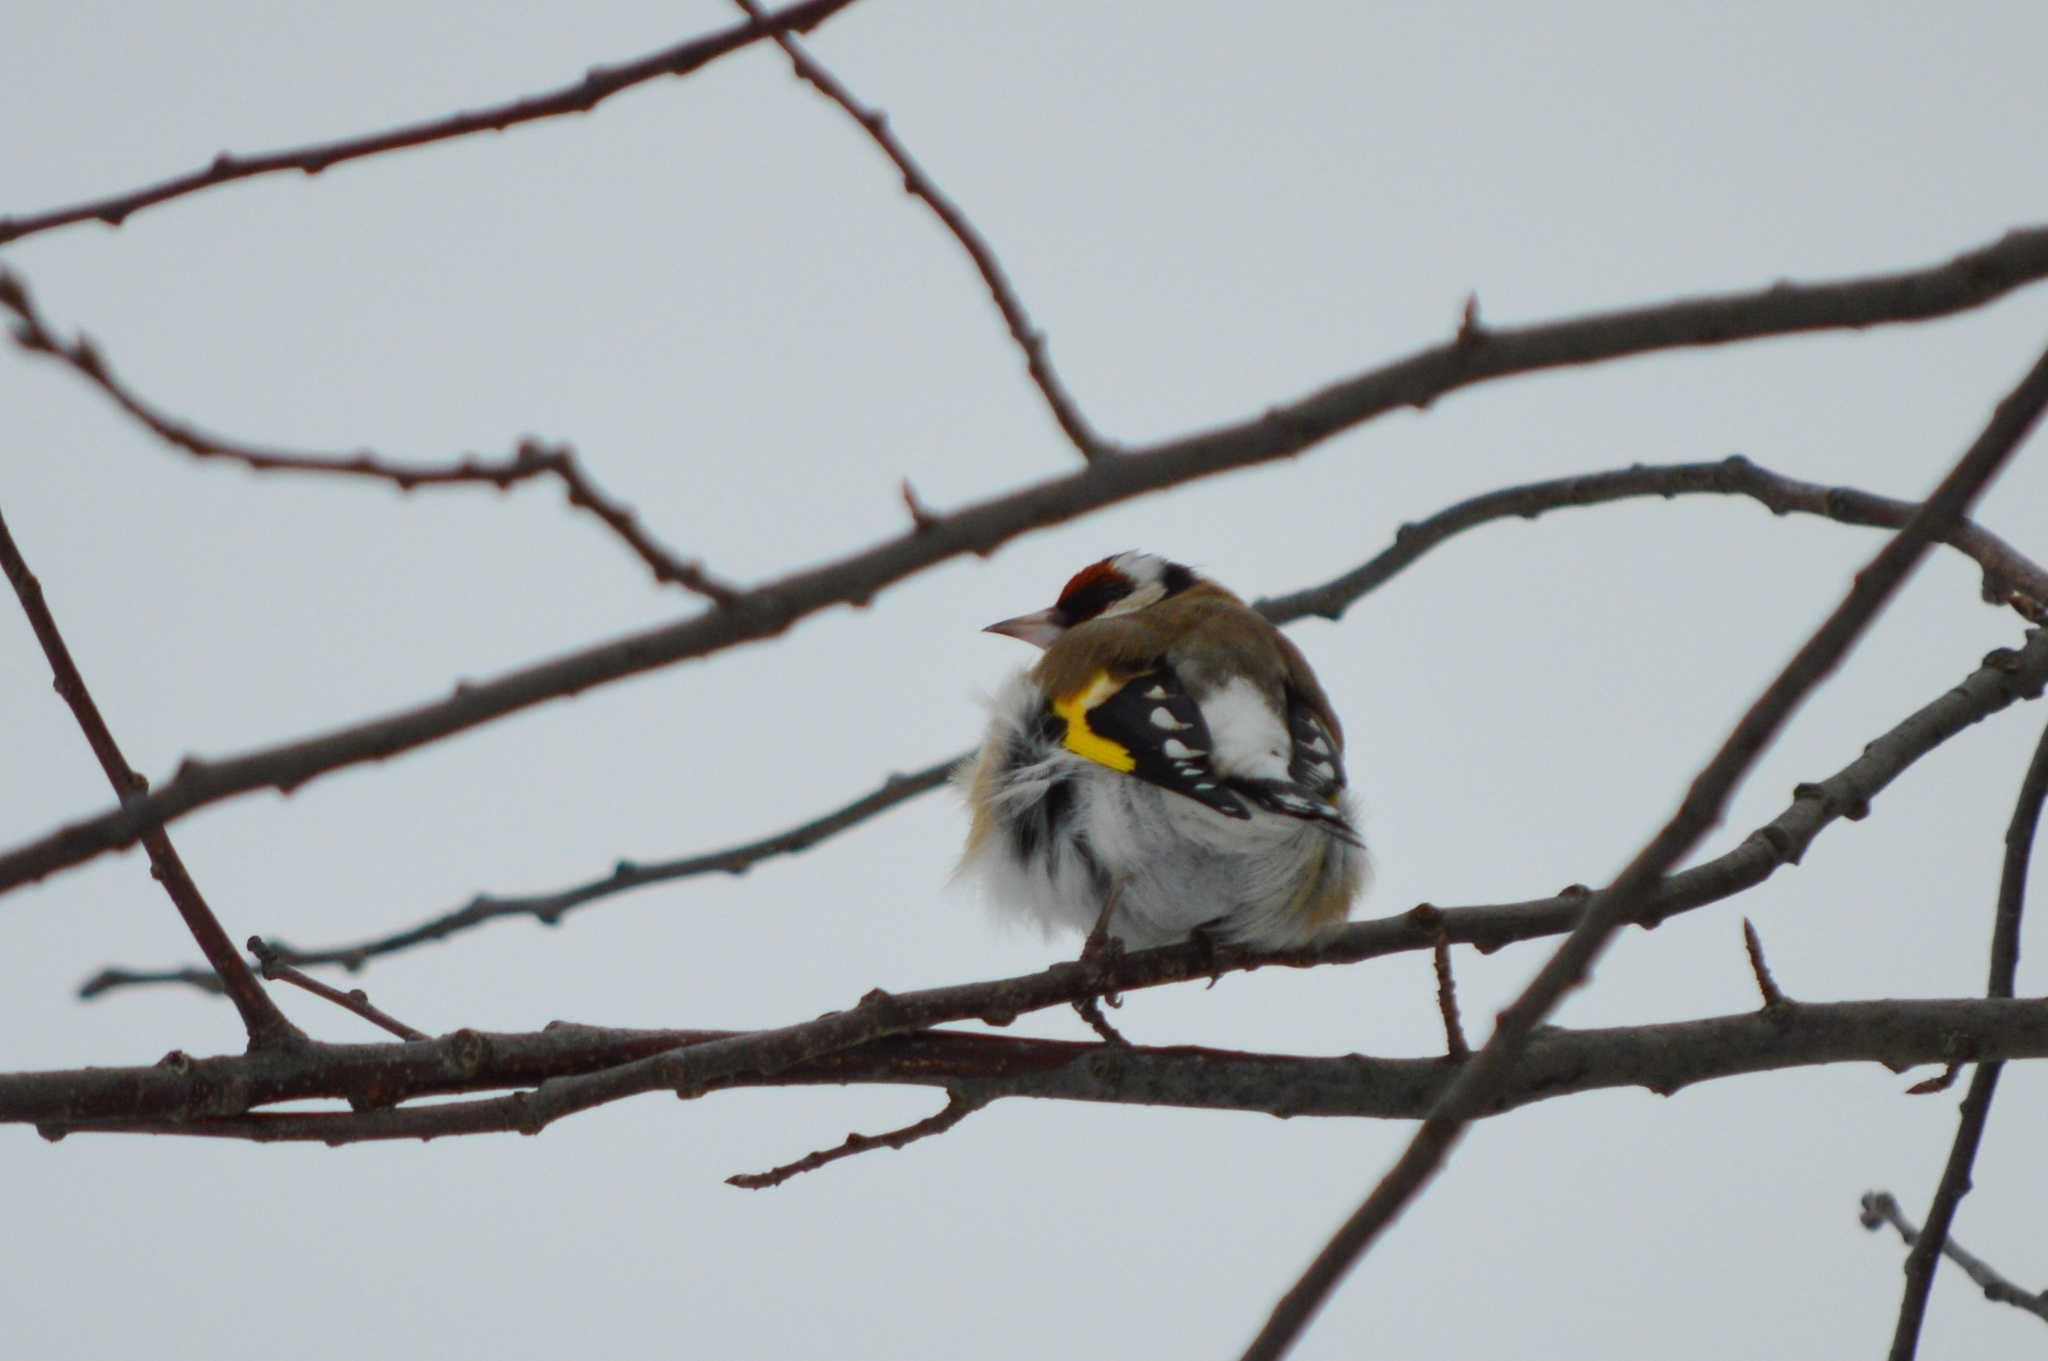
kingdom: Animalia
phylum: Chordata
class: Aves
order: Passeriformes
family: Fringillidae
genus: Carduelis
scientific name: Carduelis carduelis
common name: European goldfinch
